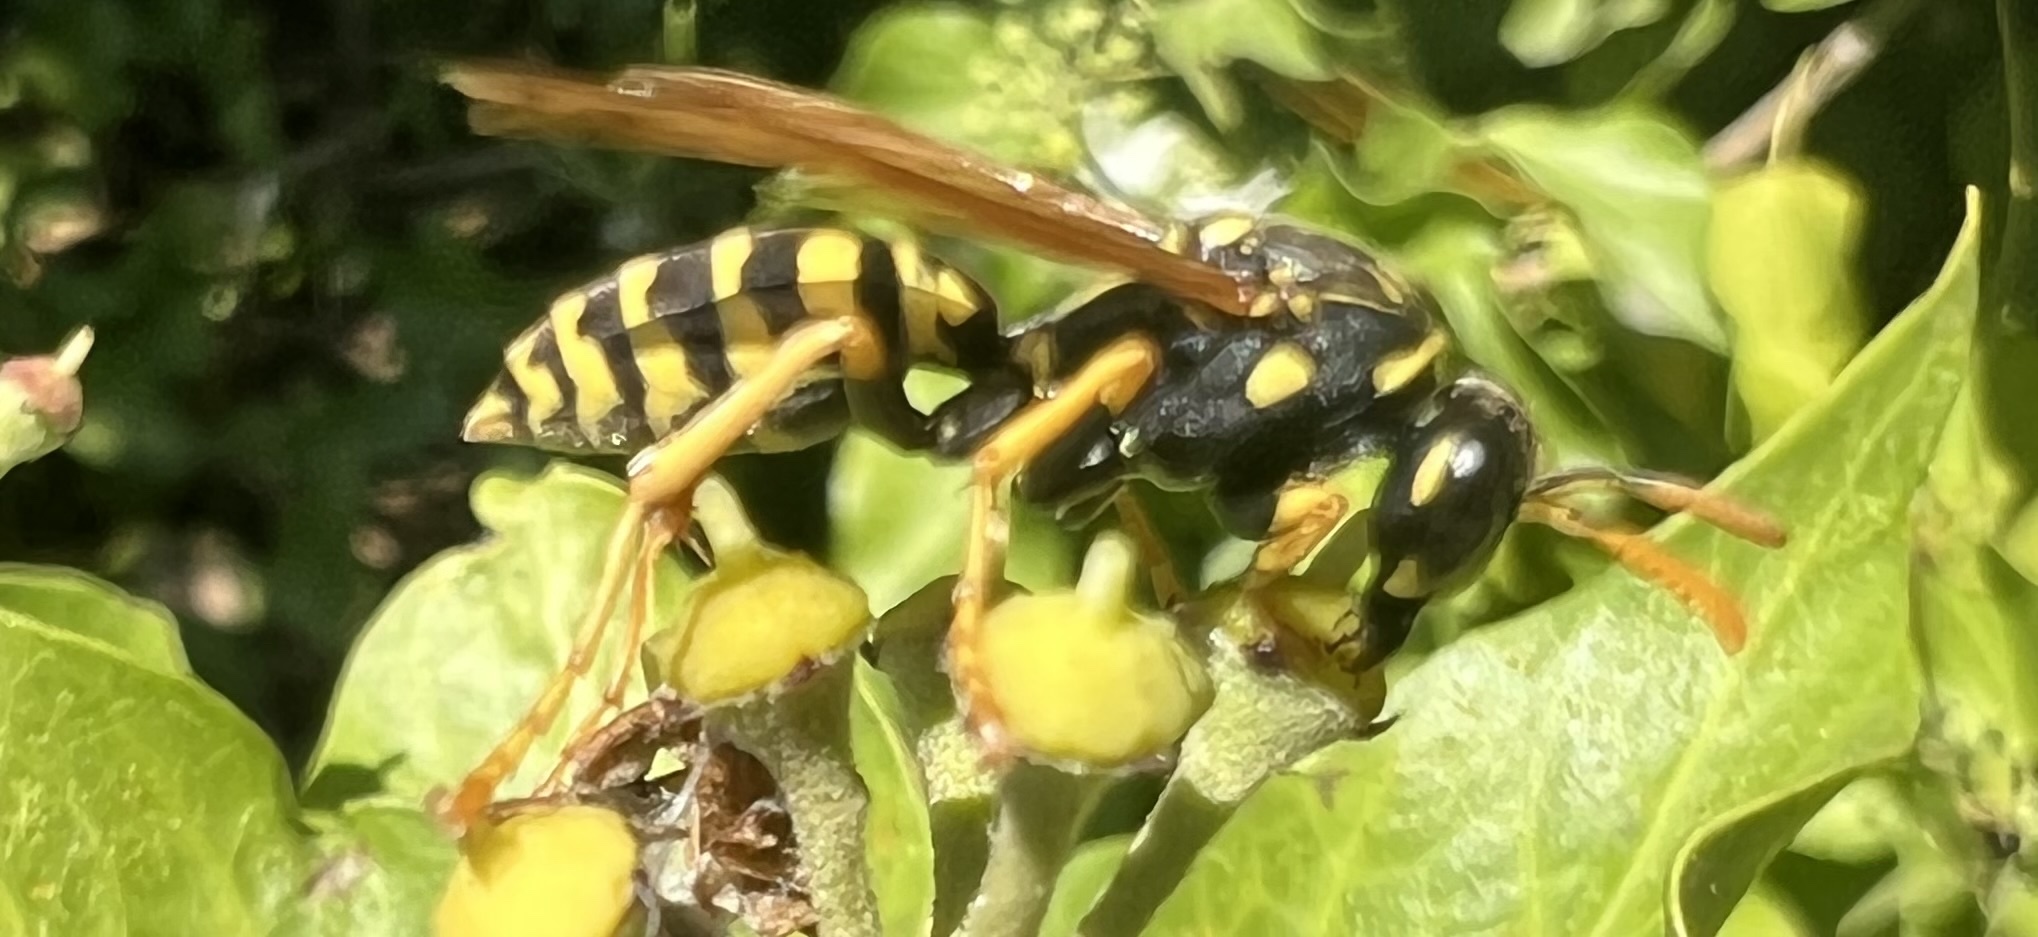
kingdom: Animalia
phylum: Arthropoda
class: Insecta
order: Hymenoptera
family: Eumenidae
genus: Polistes
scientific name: Polistes dominula
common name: Paper wasp
